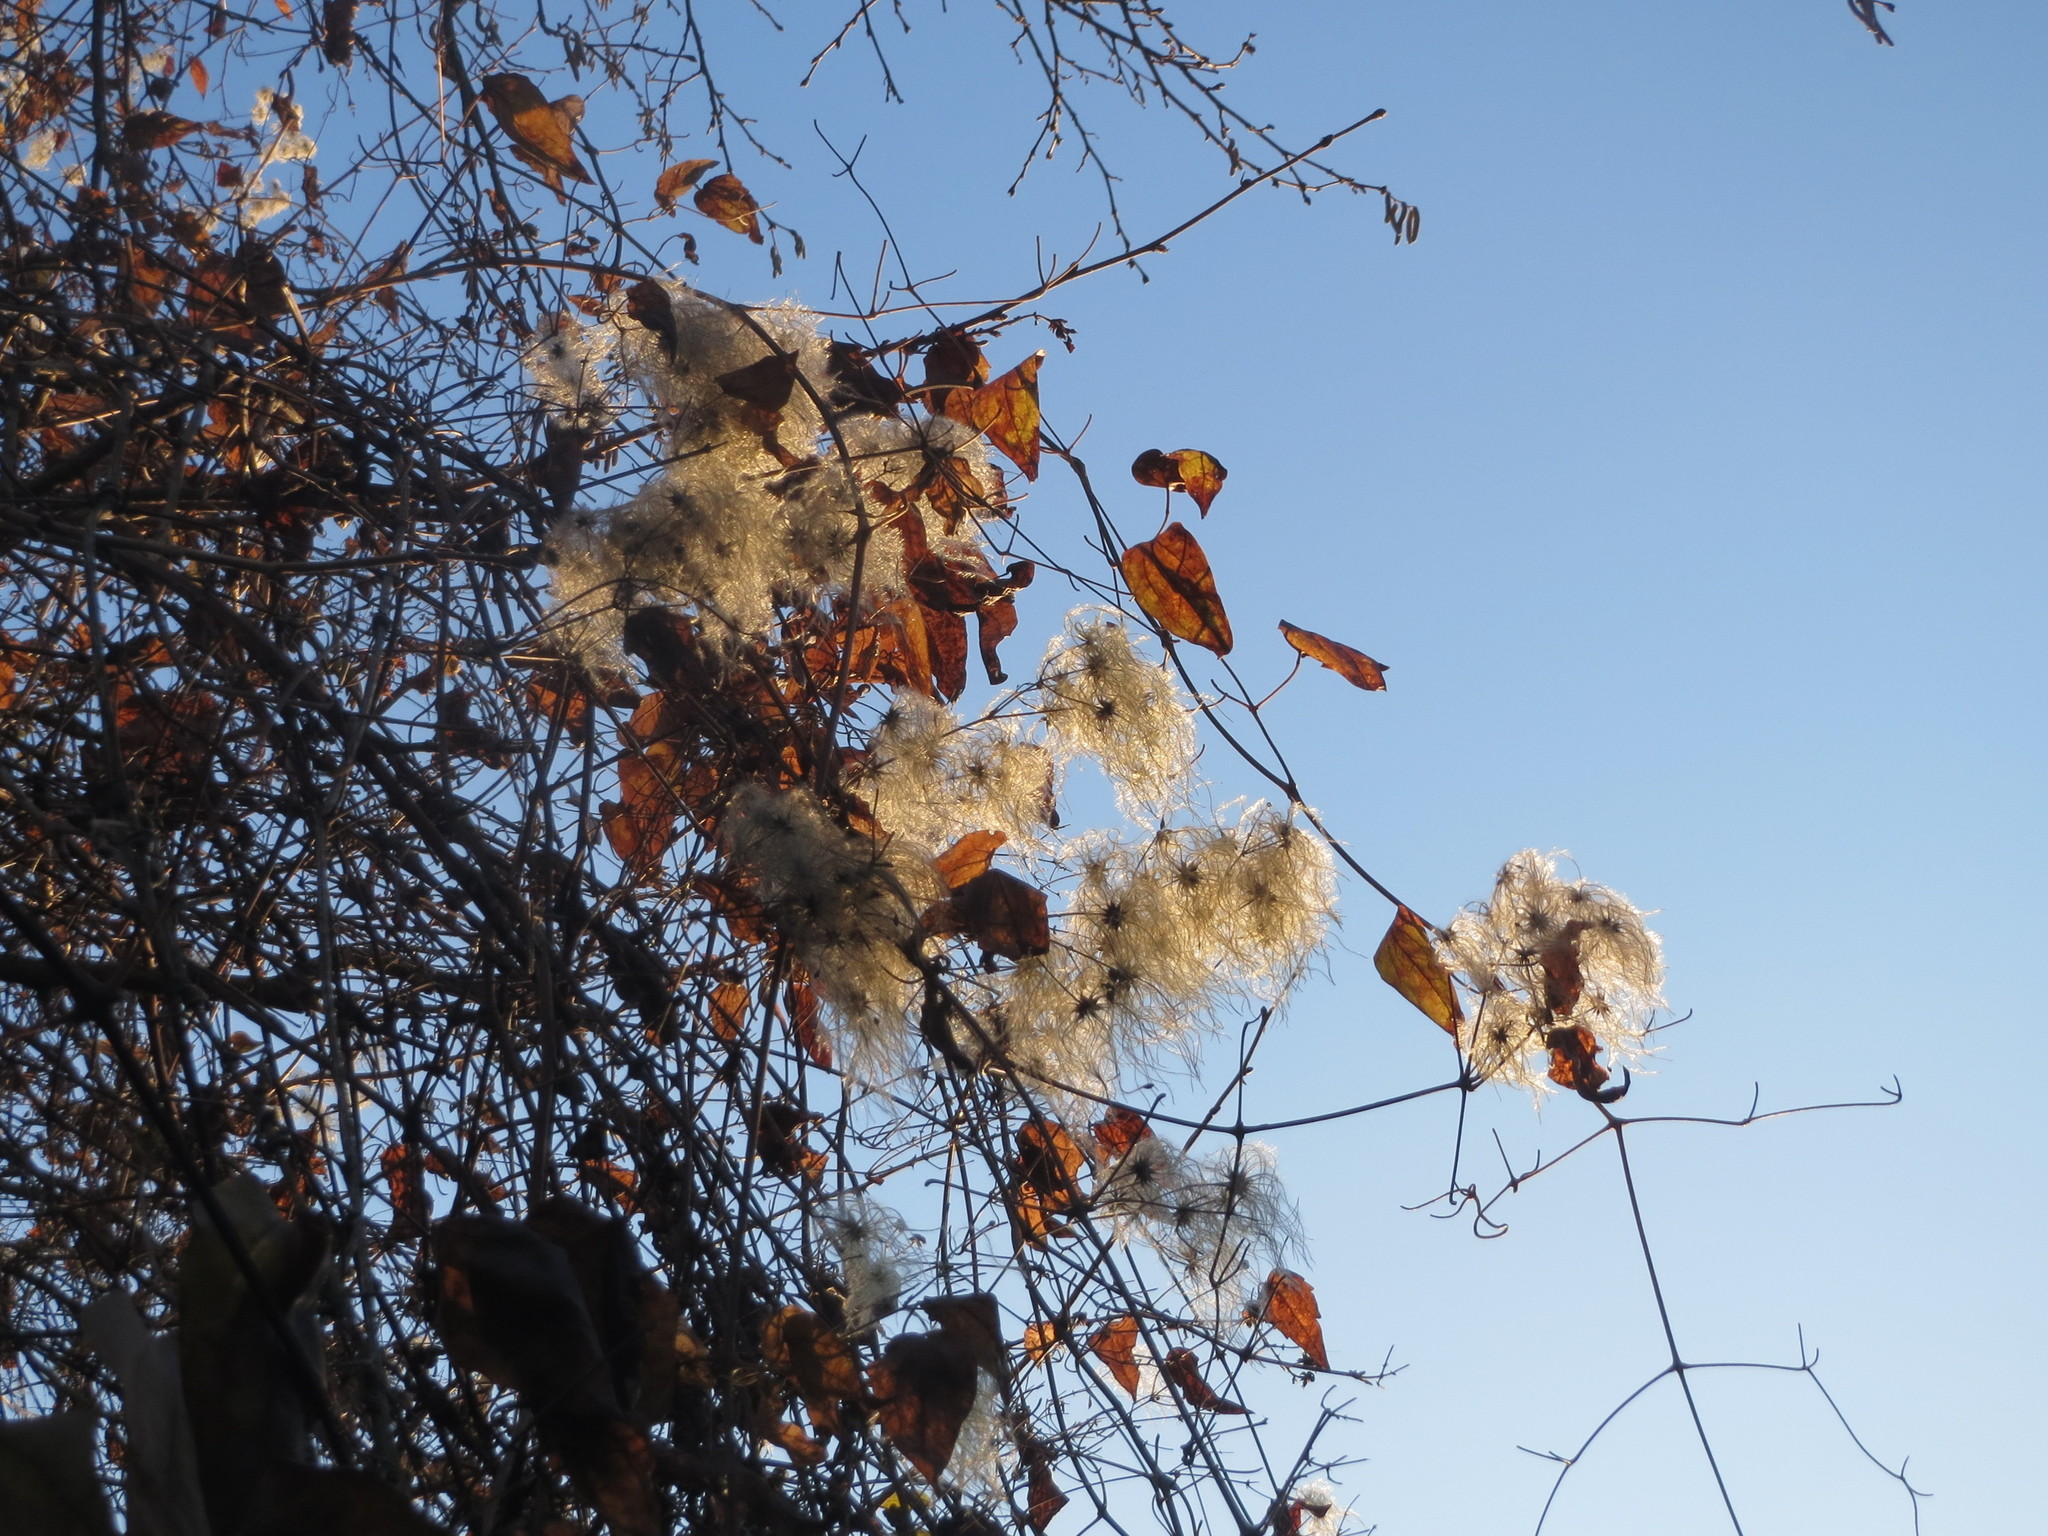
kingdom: Plantae
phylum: Tracheophyta
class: Magnoliopsida
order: Ranunculales
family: Ranunculaceae
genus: Clematis
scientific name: Clematis vitalba
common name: Evergreen clematis
